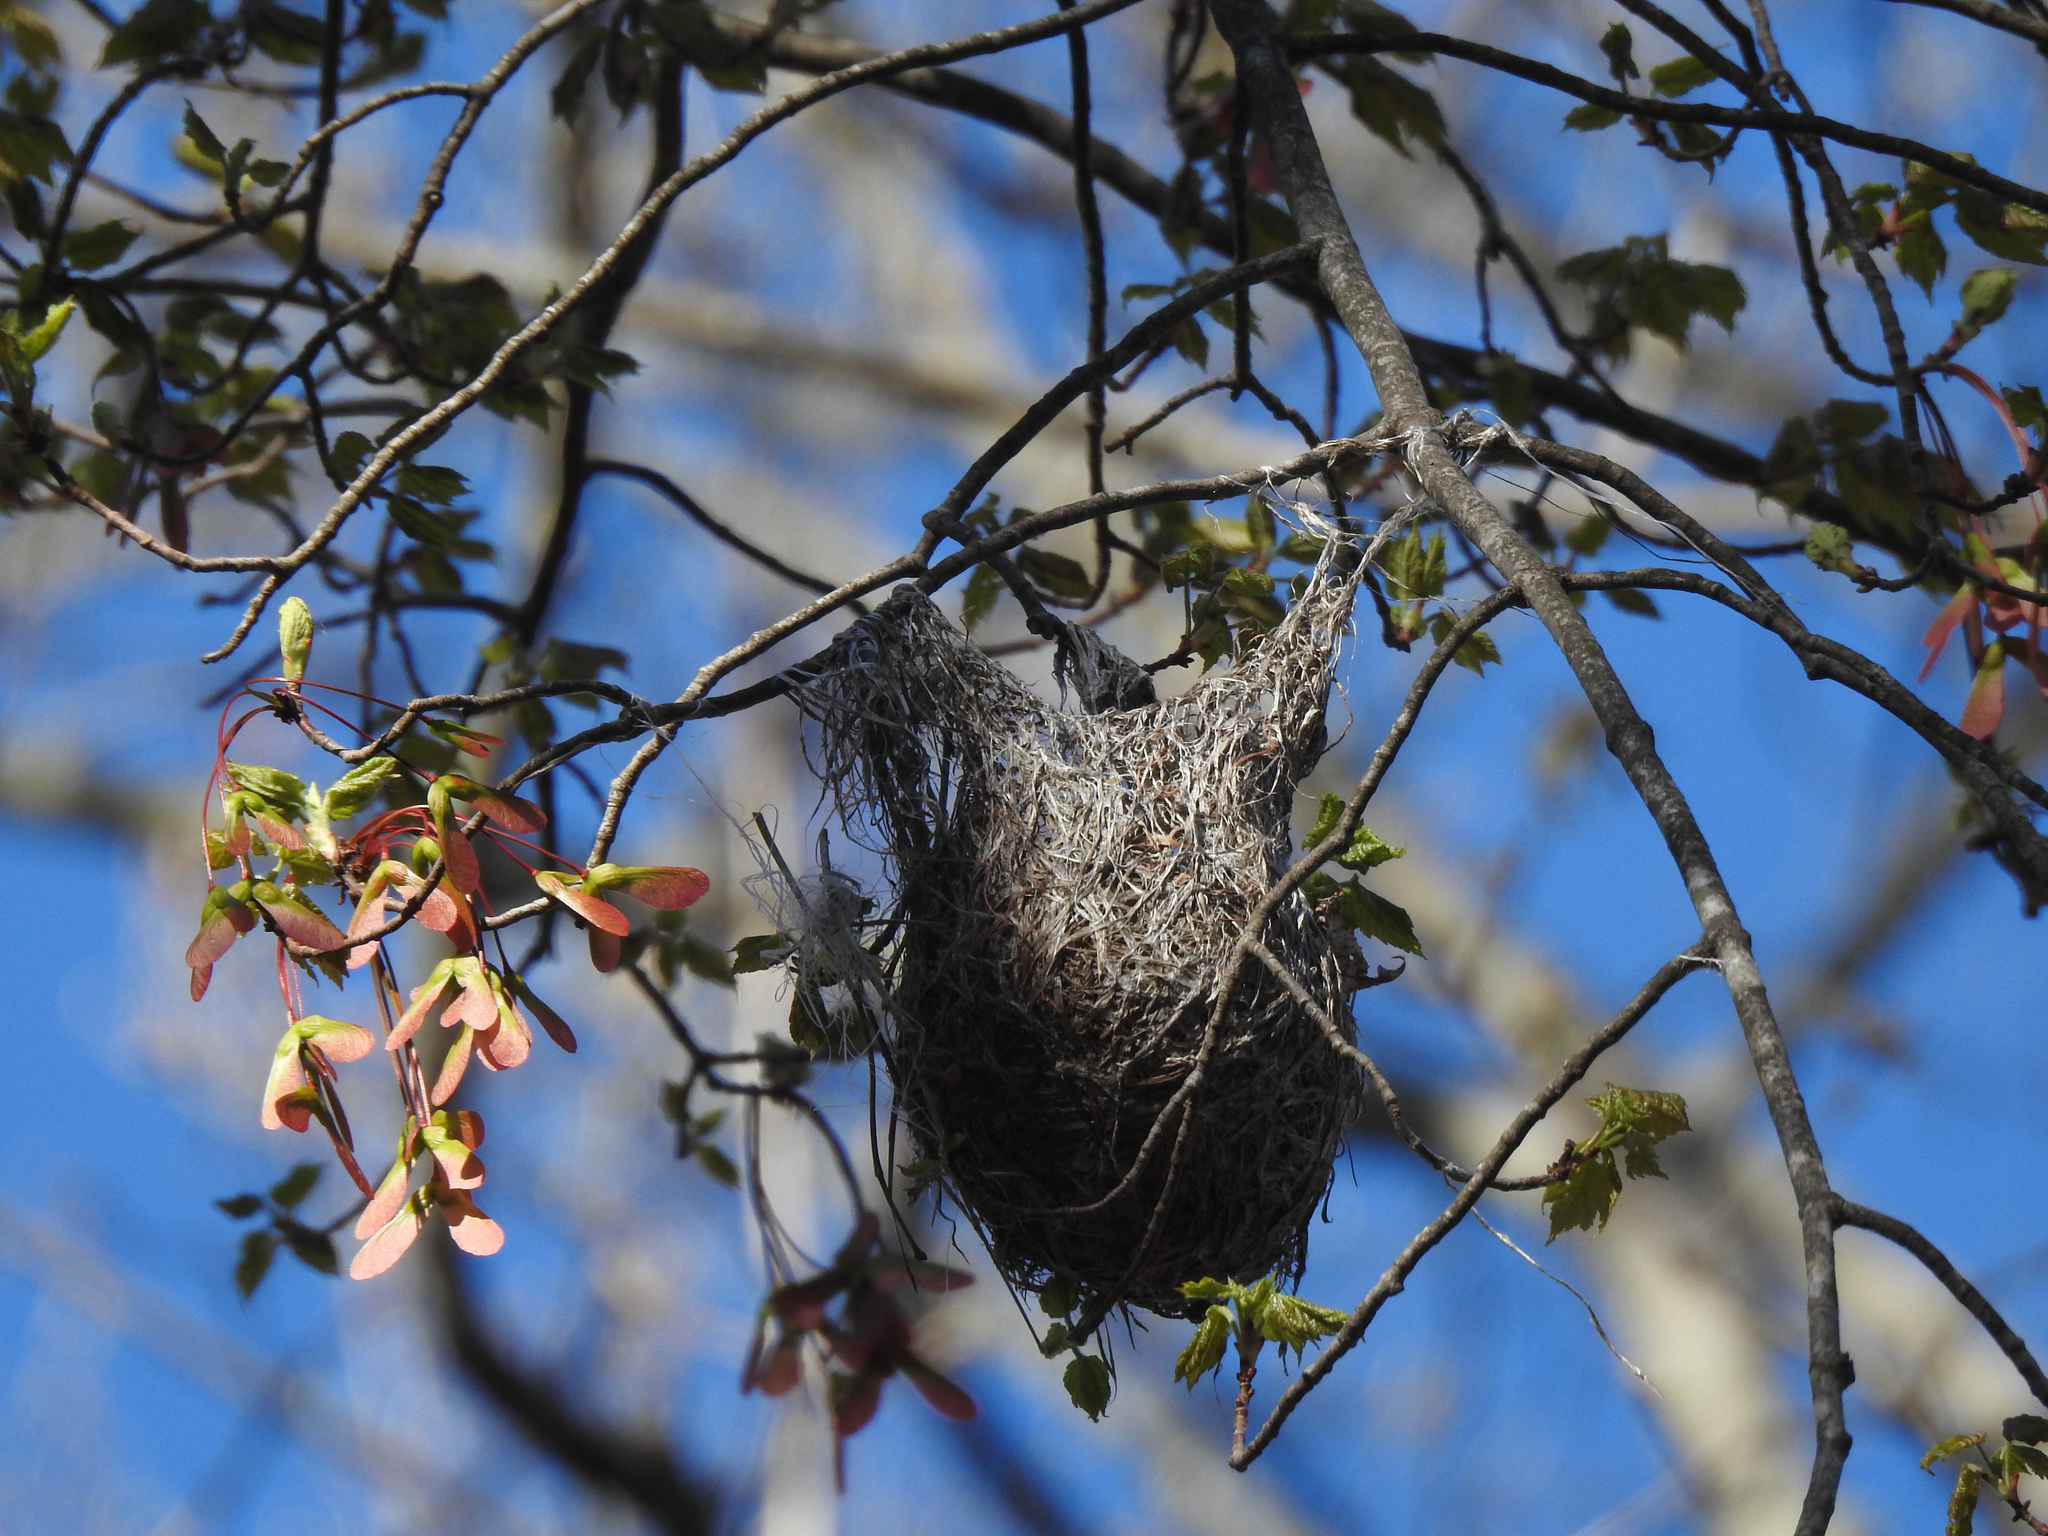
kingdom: Animalia
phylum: Chordata
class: Aves
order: Passeriformes
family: Icteridae
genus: Icterus
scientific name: Icterus galbula
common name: Baltimore oriole
